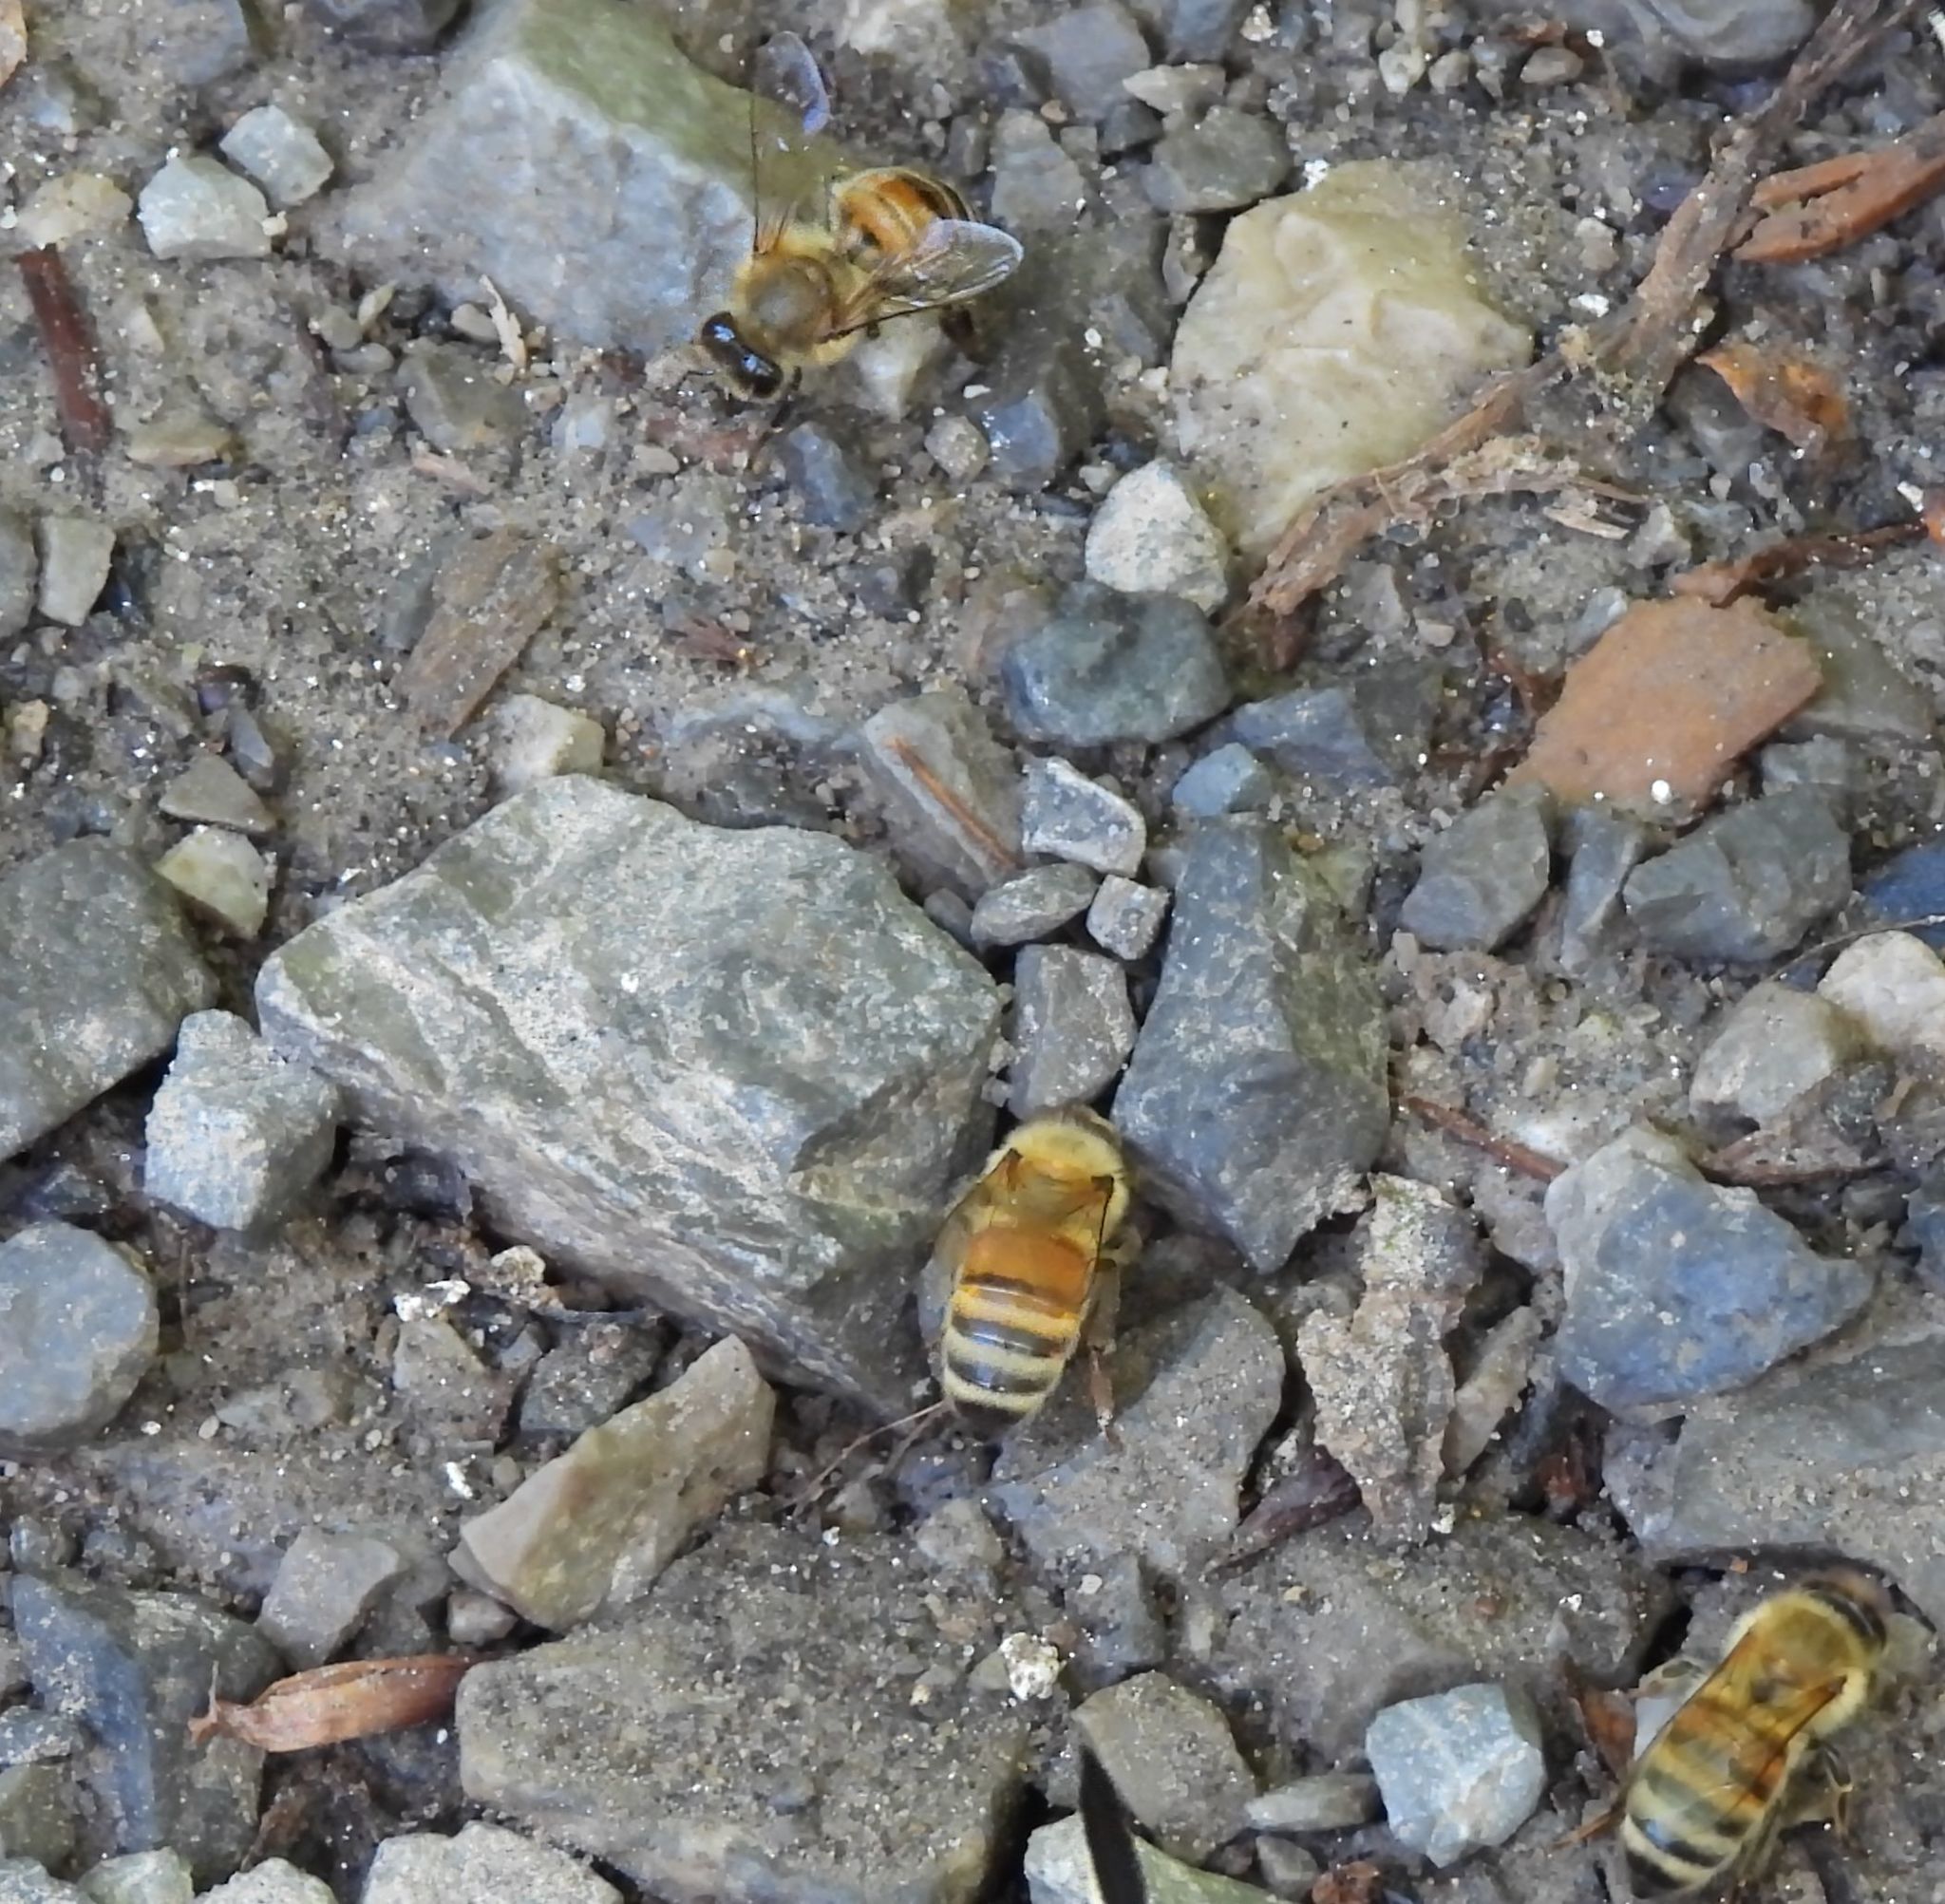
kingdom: Animalia
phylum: Arthropoda
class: Insecta
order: Hymenoptera
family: Apidae
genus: Apis
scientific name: Apis mellifera
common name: Honey bee
